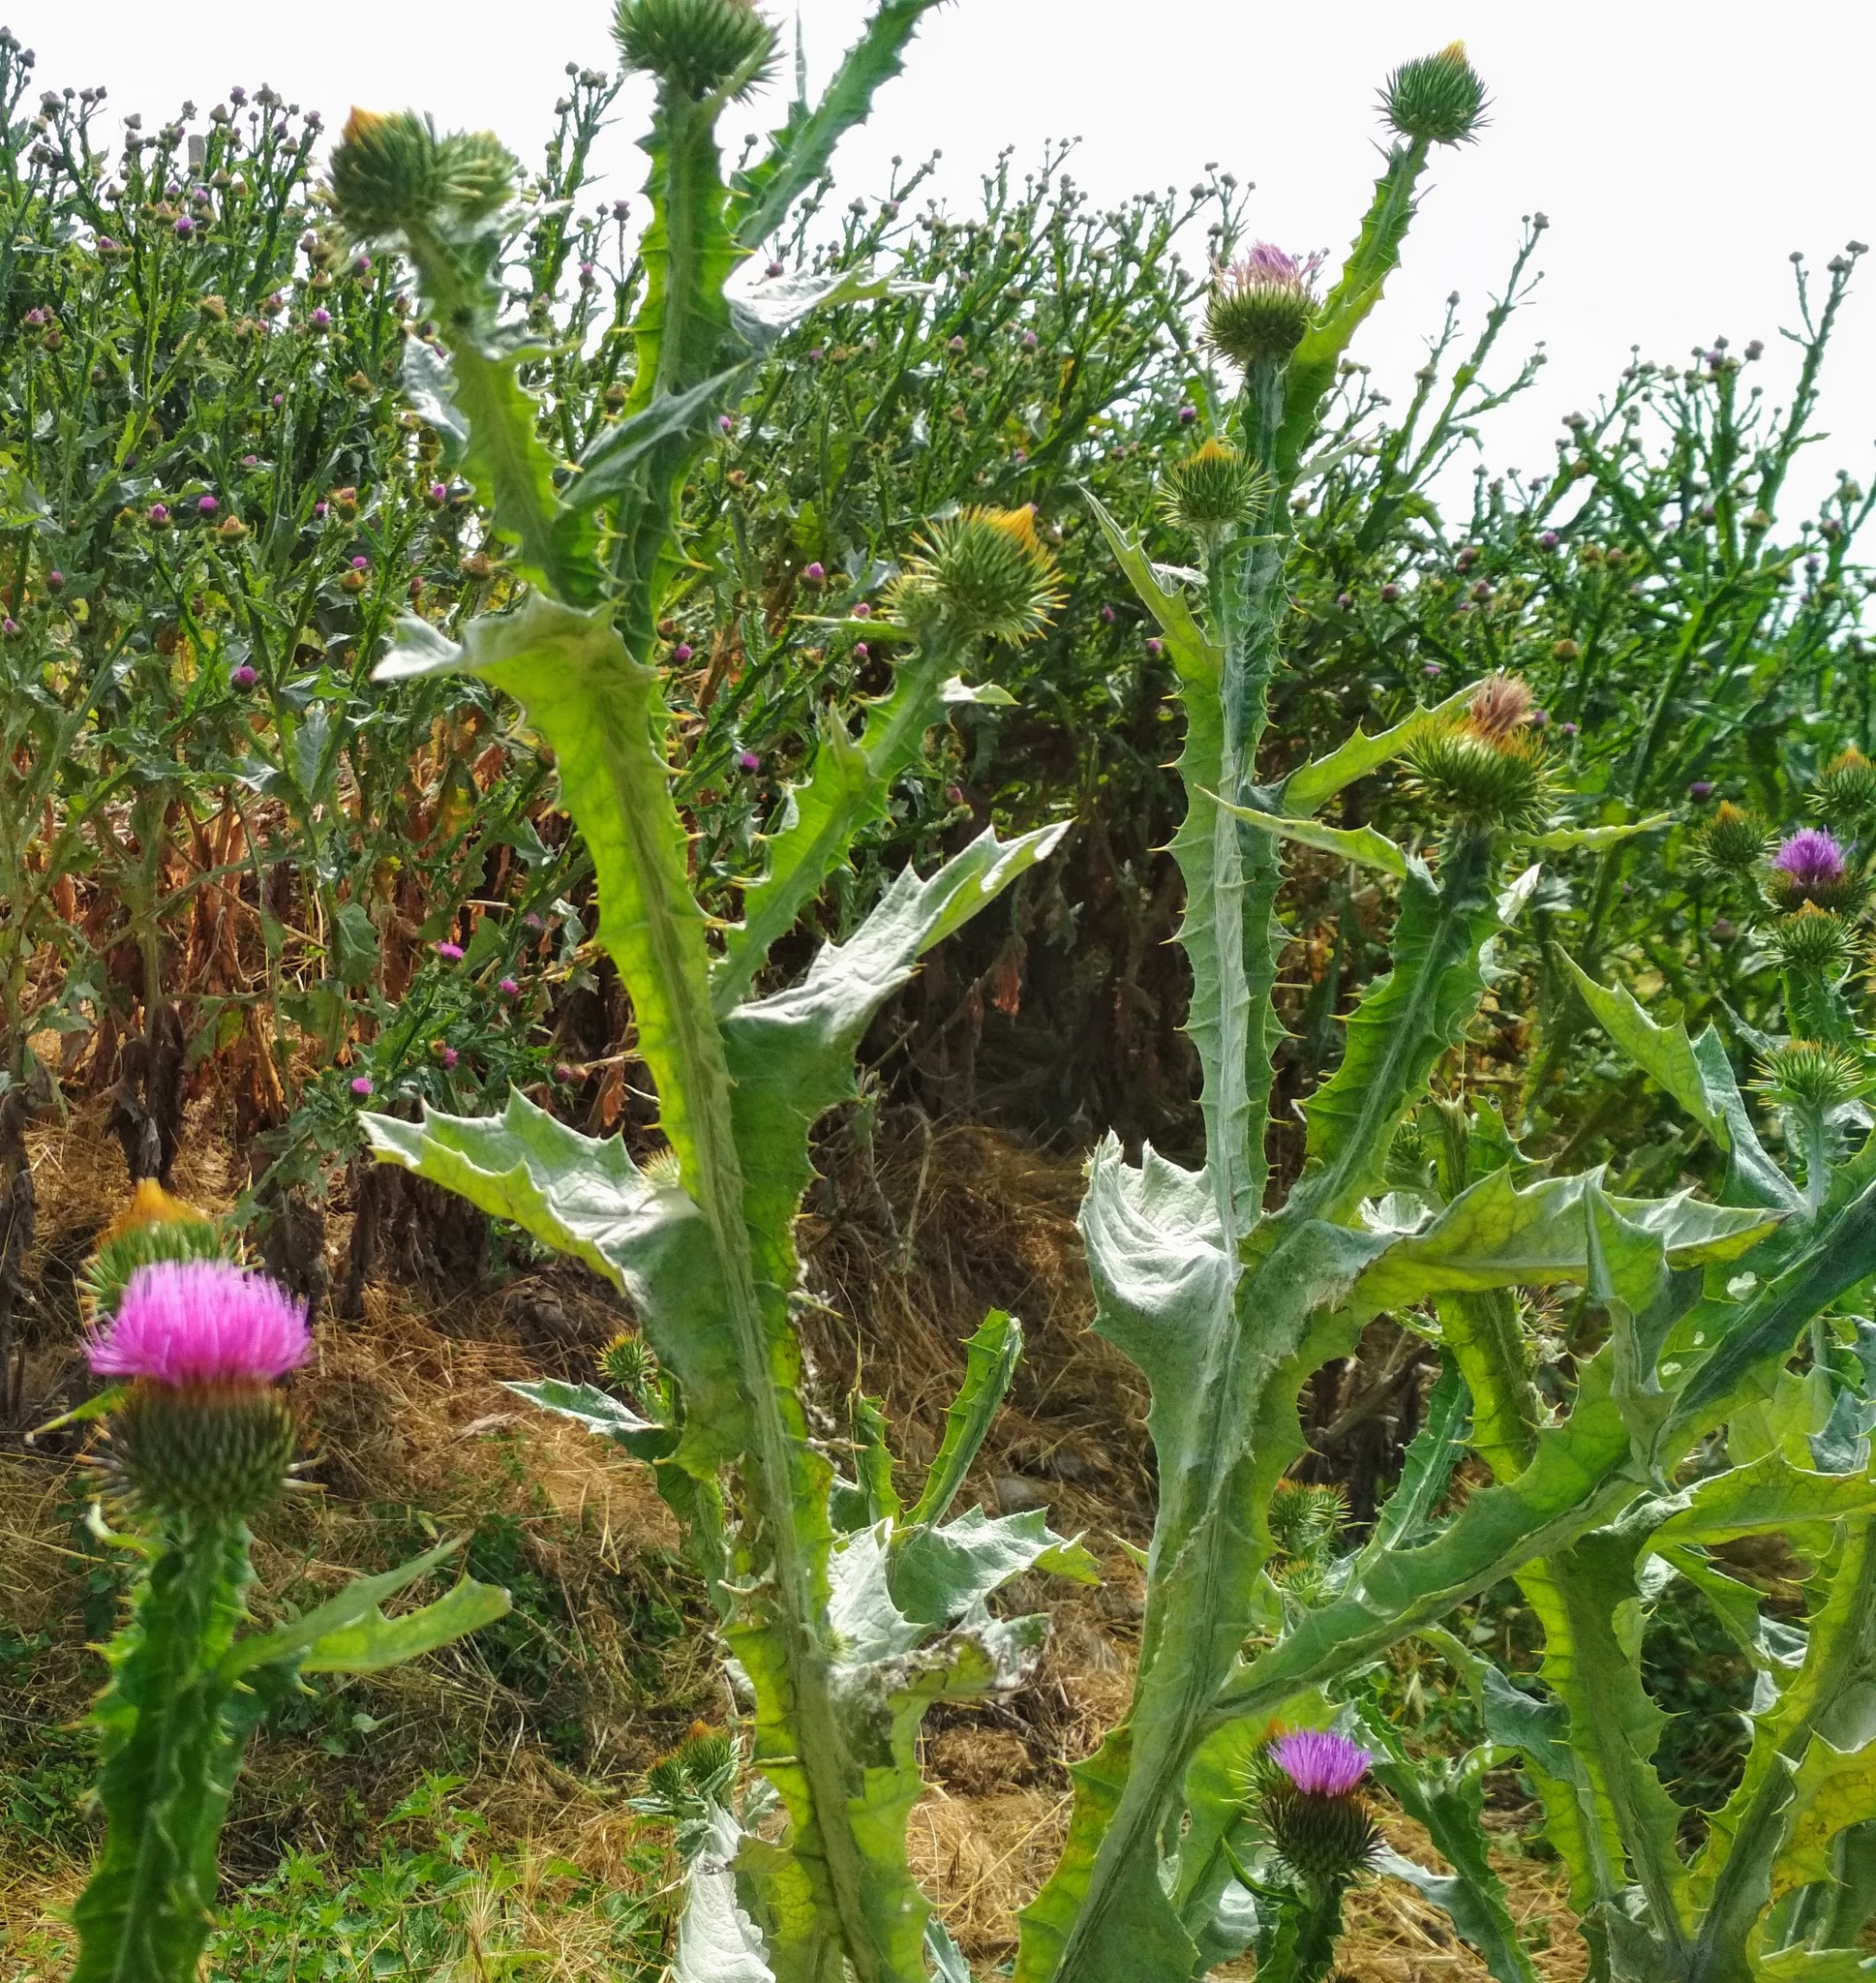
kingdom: Plantae
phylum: Tracheophyta
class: Magnoliopsida
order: Asterales
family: Asteraceae
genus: Onopordum
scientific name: Onopordum acanthium
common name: Scotch thistle
